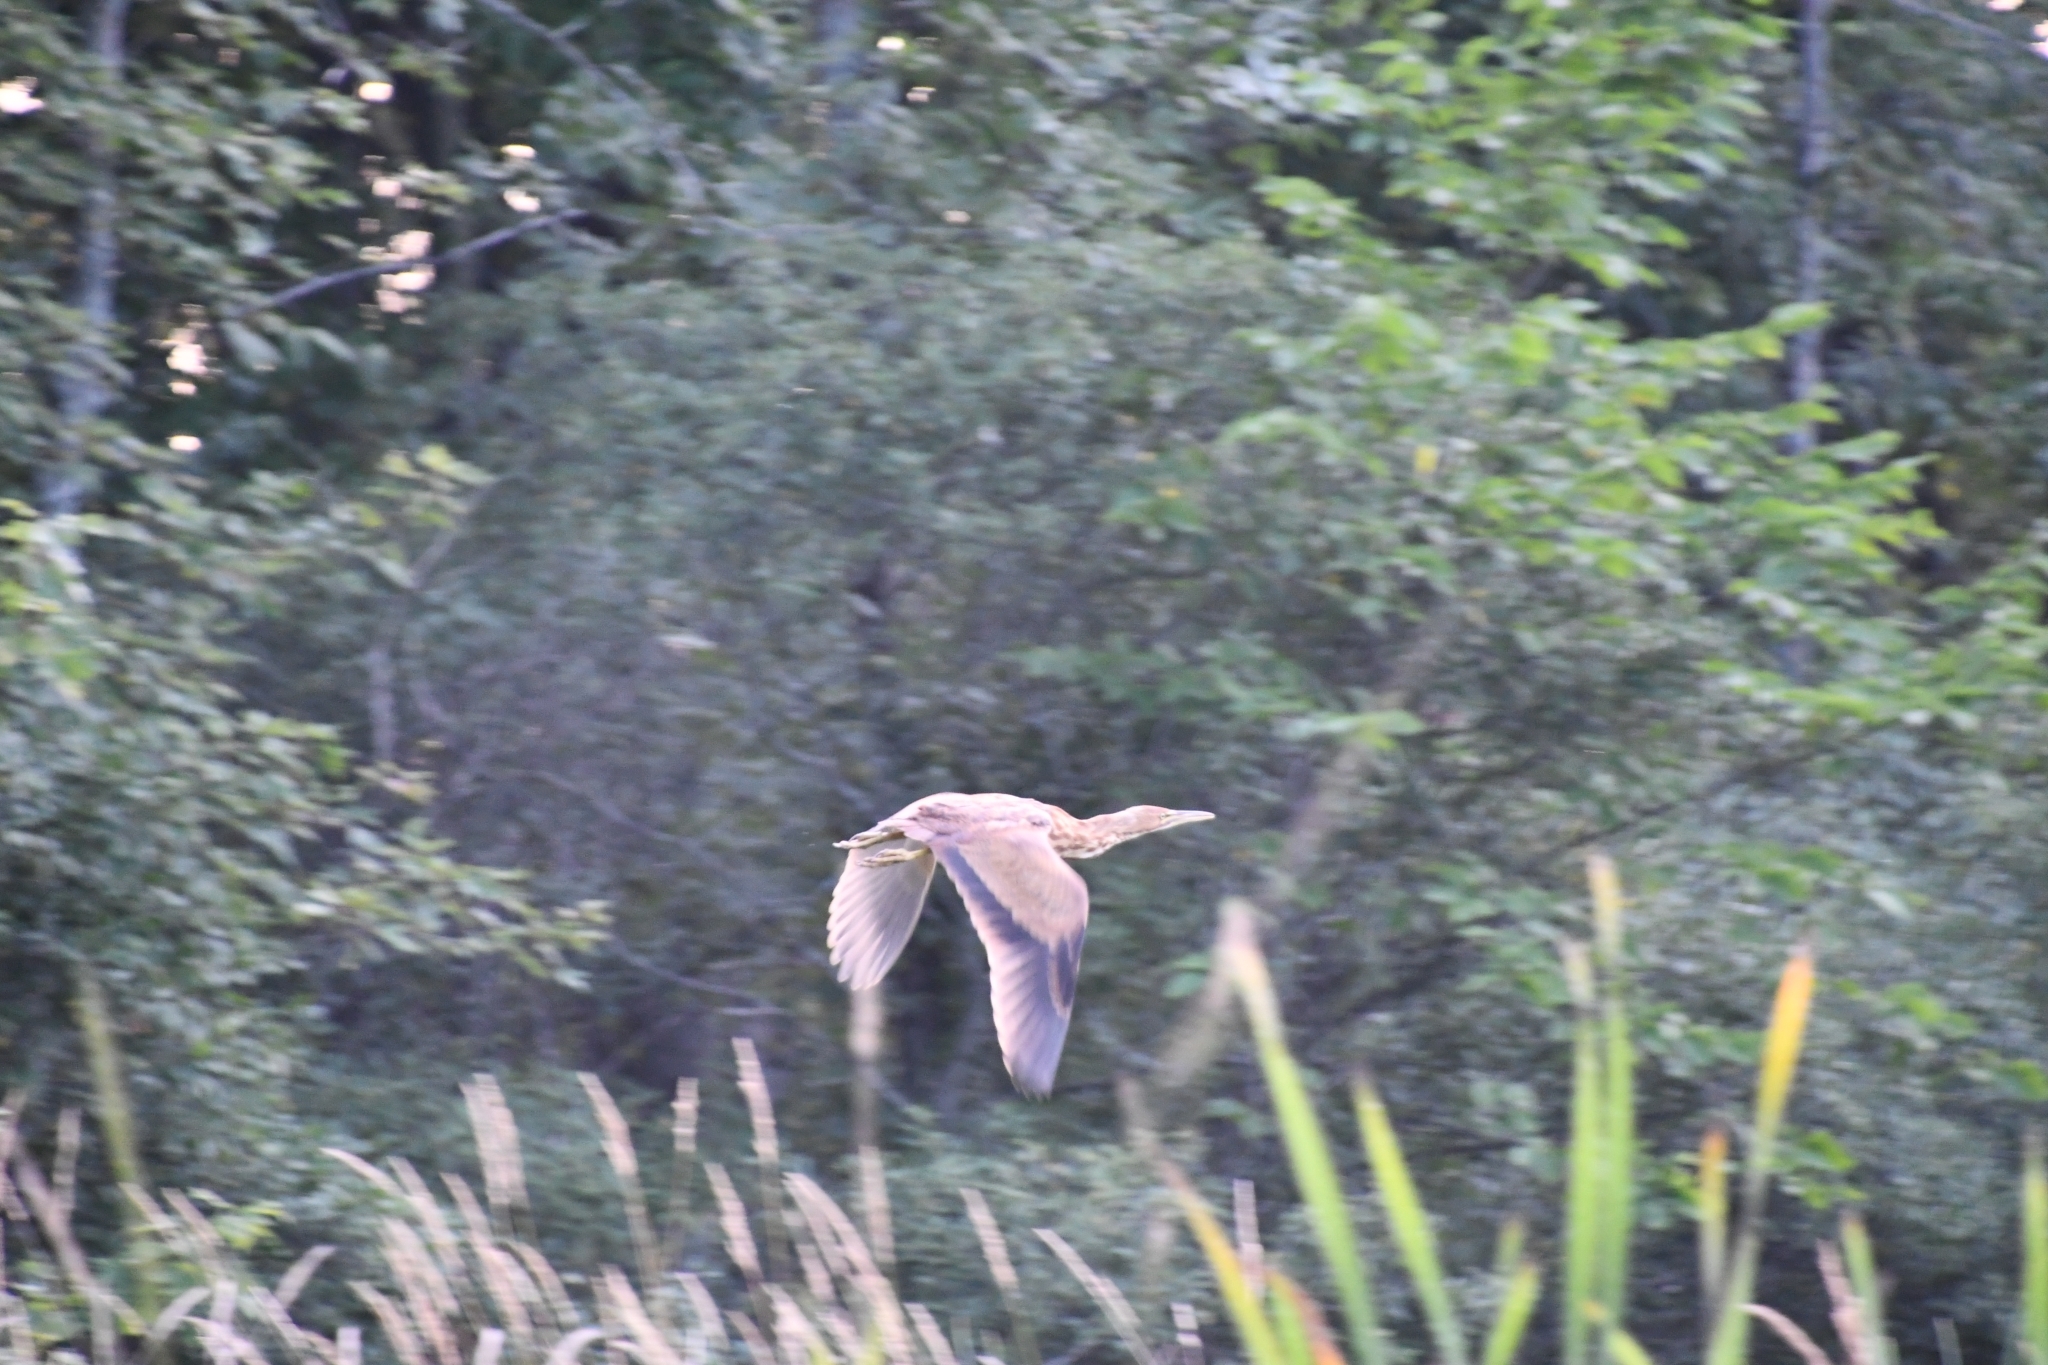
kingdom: Animalia
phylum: Chordata
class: Aves
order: Pelecaniformes
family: Ardeidae
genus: Botaurus
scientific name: Botaurus lentiginosus
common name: American bittern
